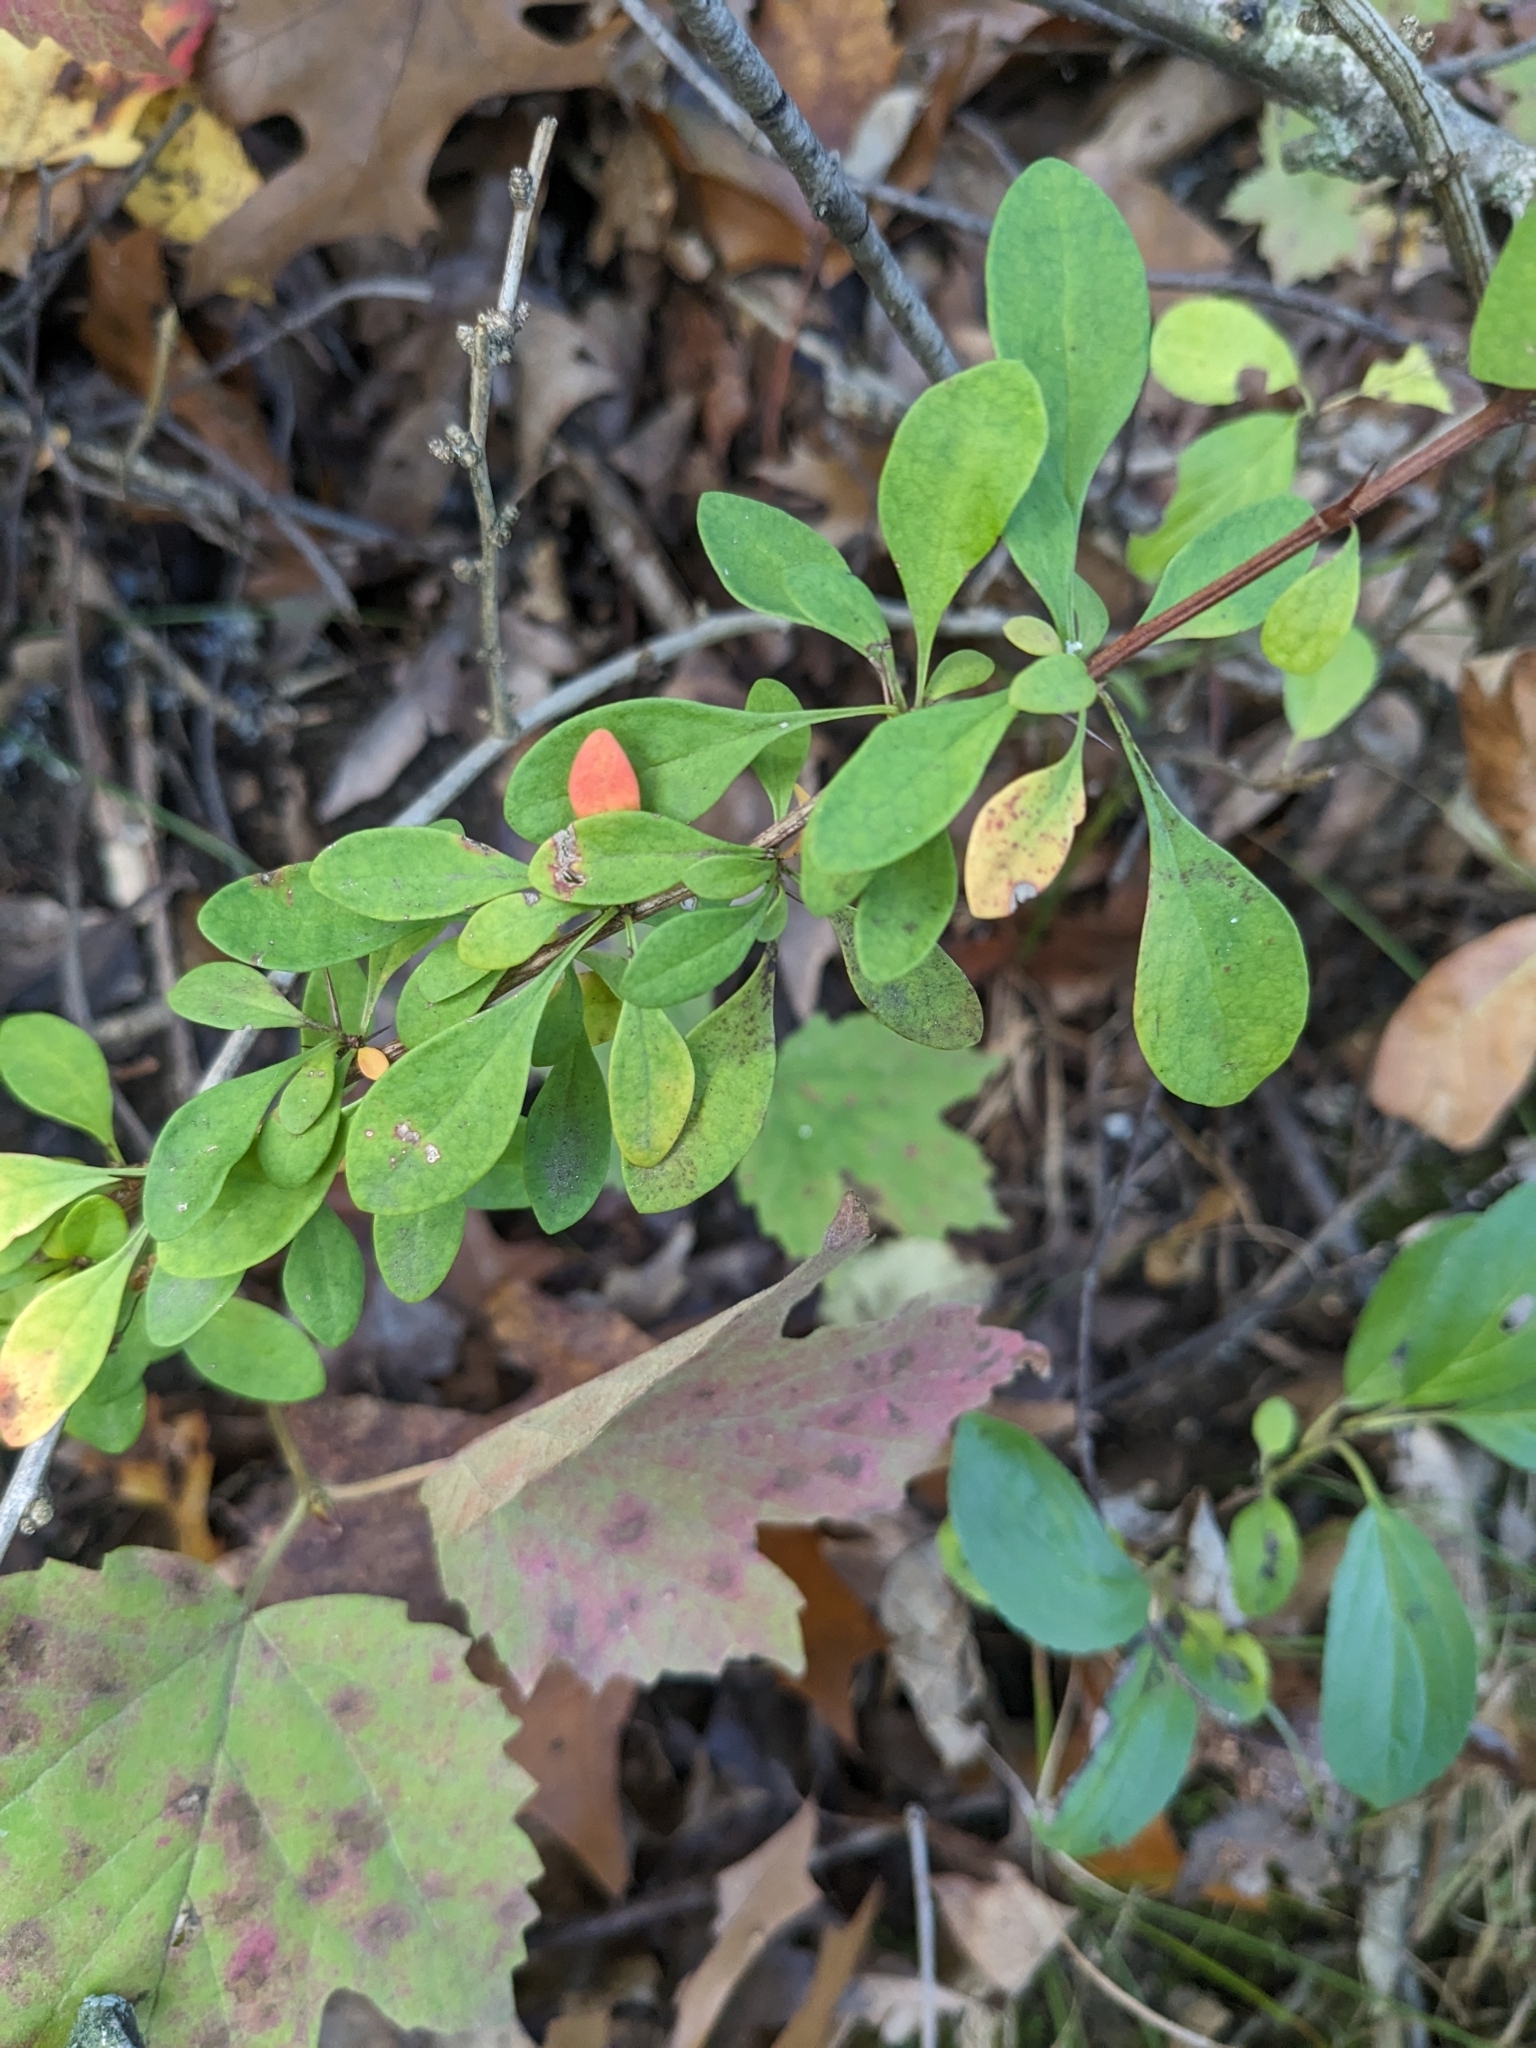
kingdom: Plantae
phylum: Tracheophyta
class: Magnoliopsida
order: Ranunculales
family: Berberidaceae
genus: Berberis
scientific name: Berberis thunbergii
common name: Japanese barberry
